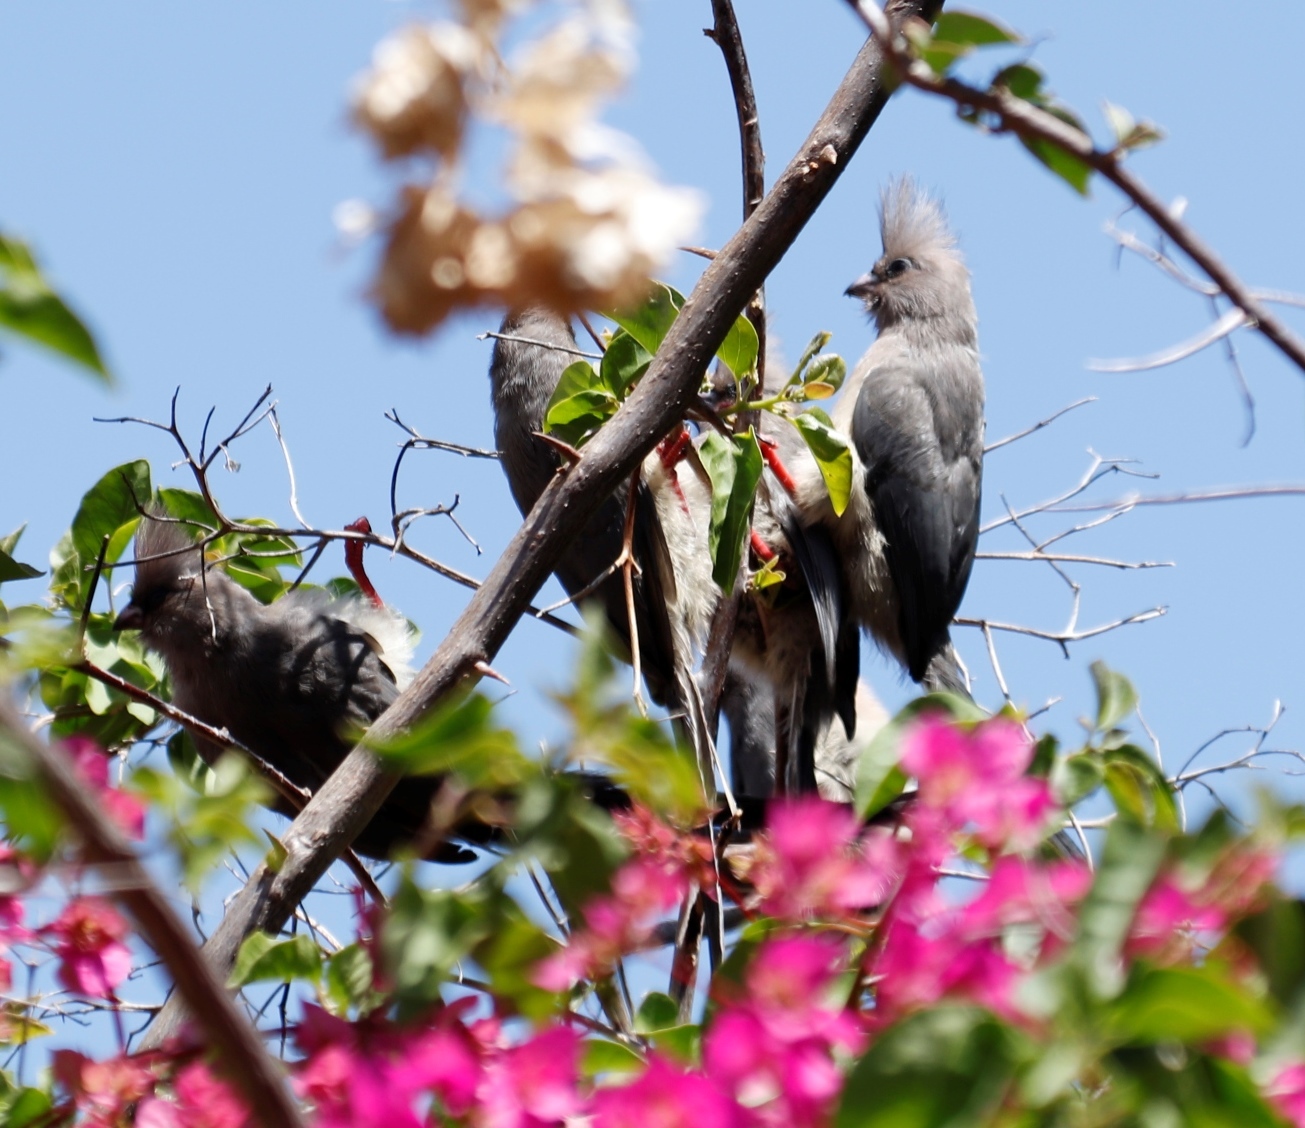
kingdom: Animalia
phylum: Chordata
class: Aves
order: Coliiformes
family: Coliidae
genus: Colius
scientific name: Colius colius
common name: White-backed mousebird
